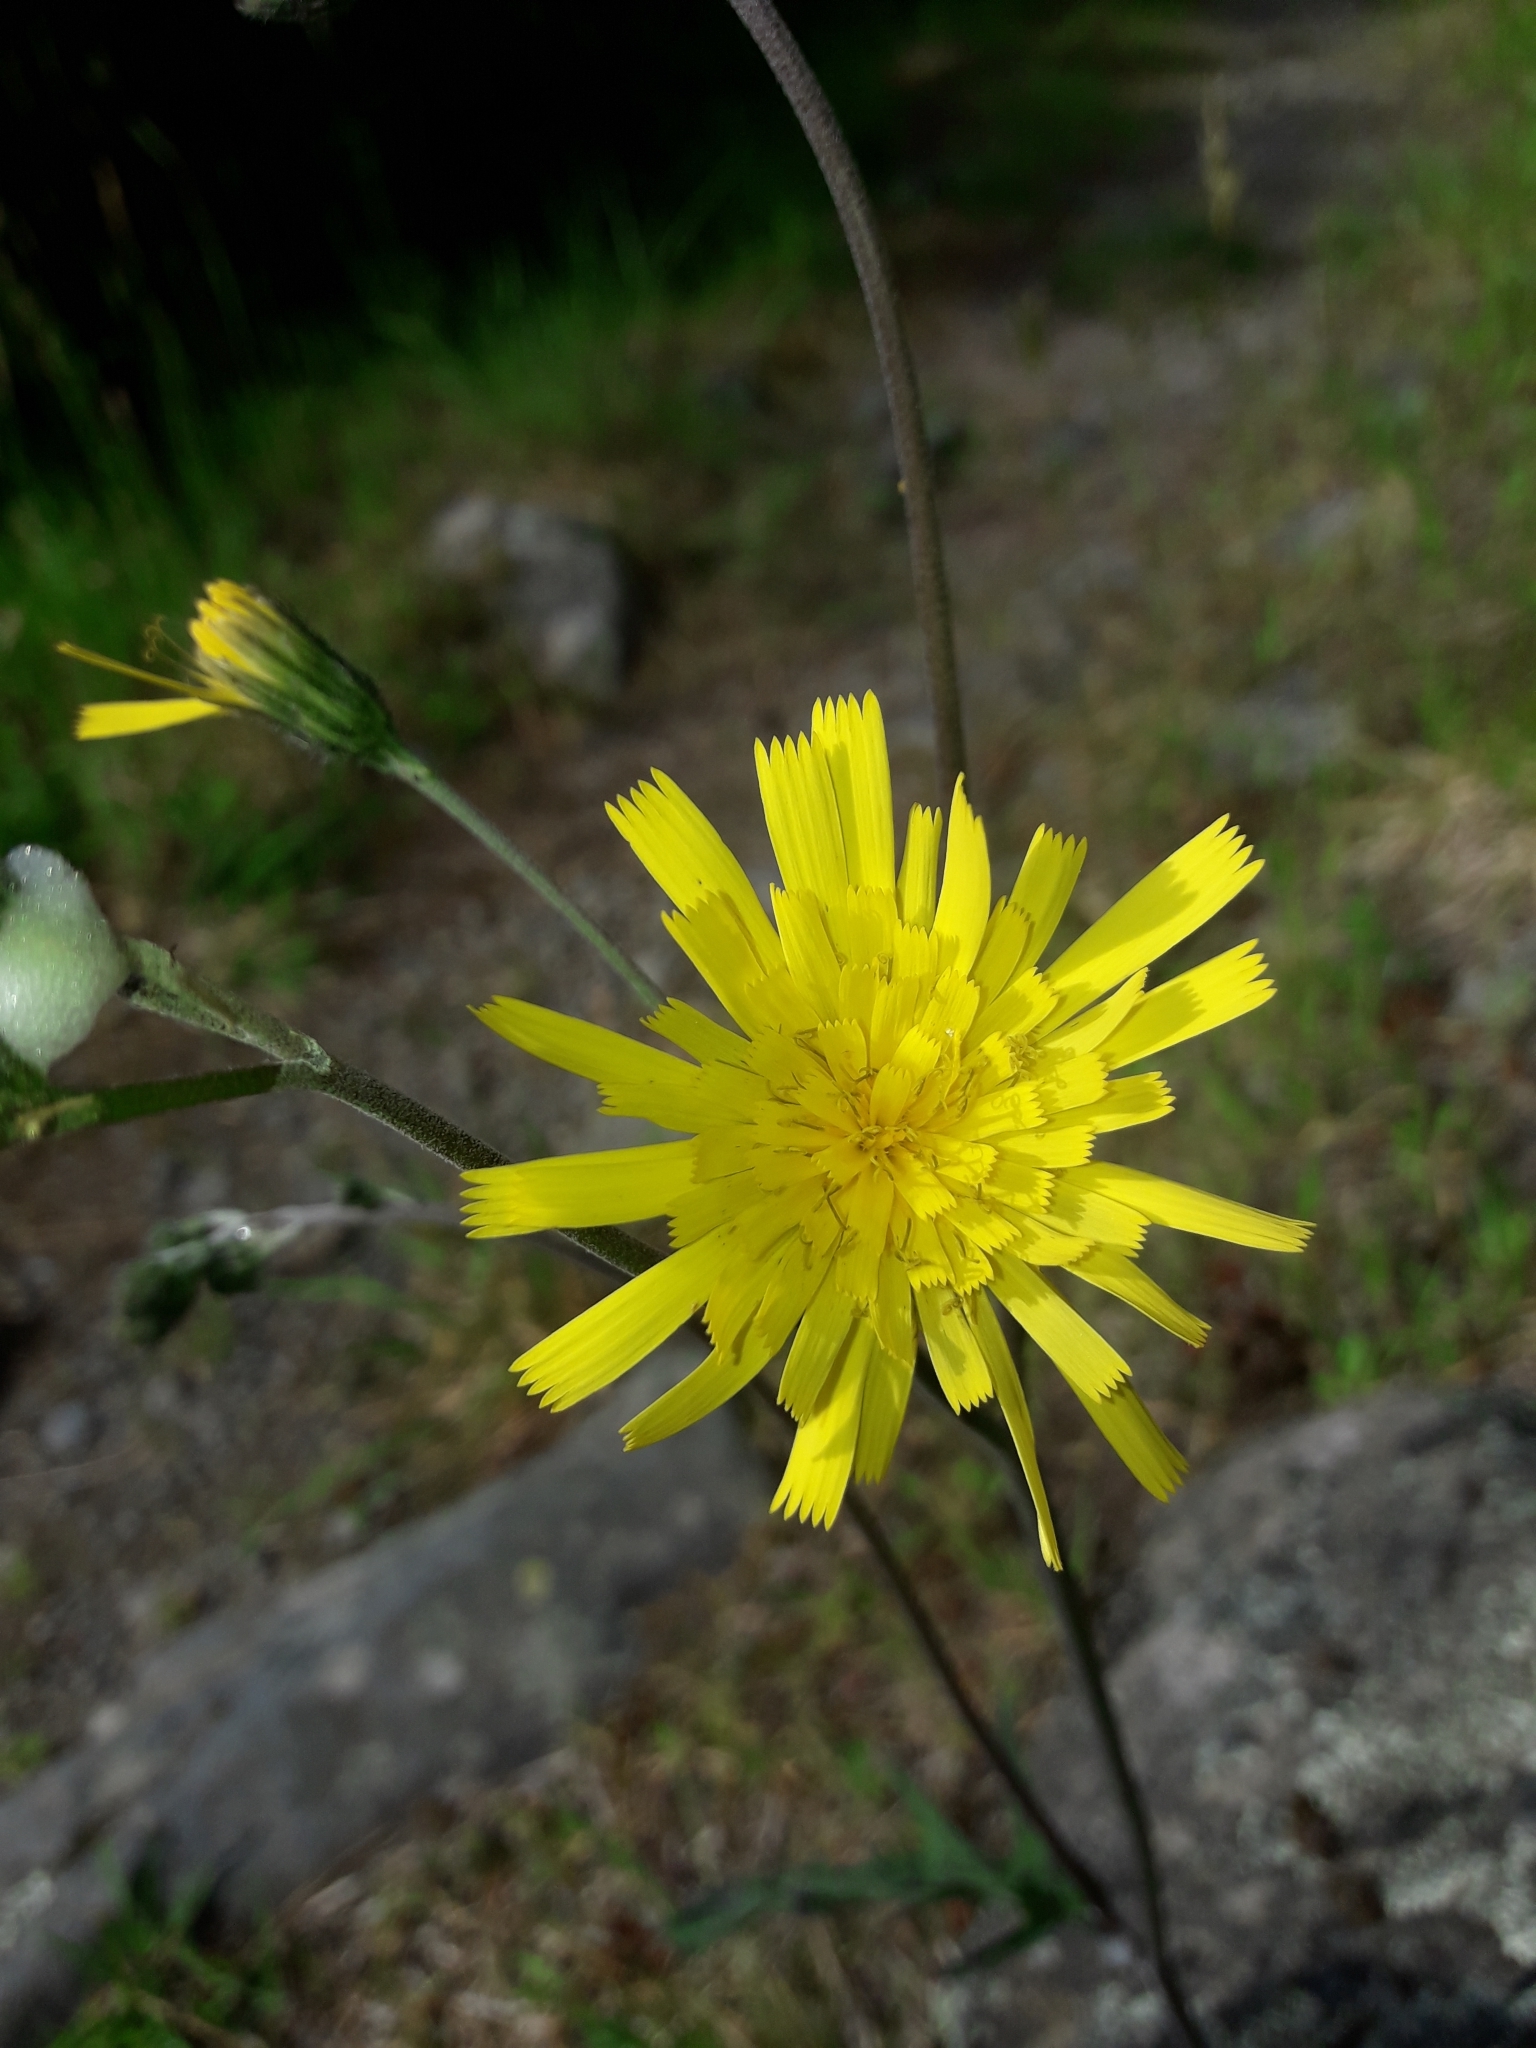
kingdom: Plantae
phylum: Tracheophyta
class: Magnoliopsida
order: Asterales
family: Asteraceae
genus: Hieracium
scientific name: Hieracium maculatum
